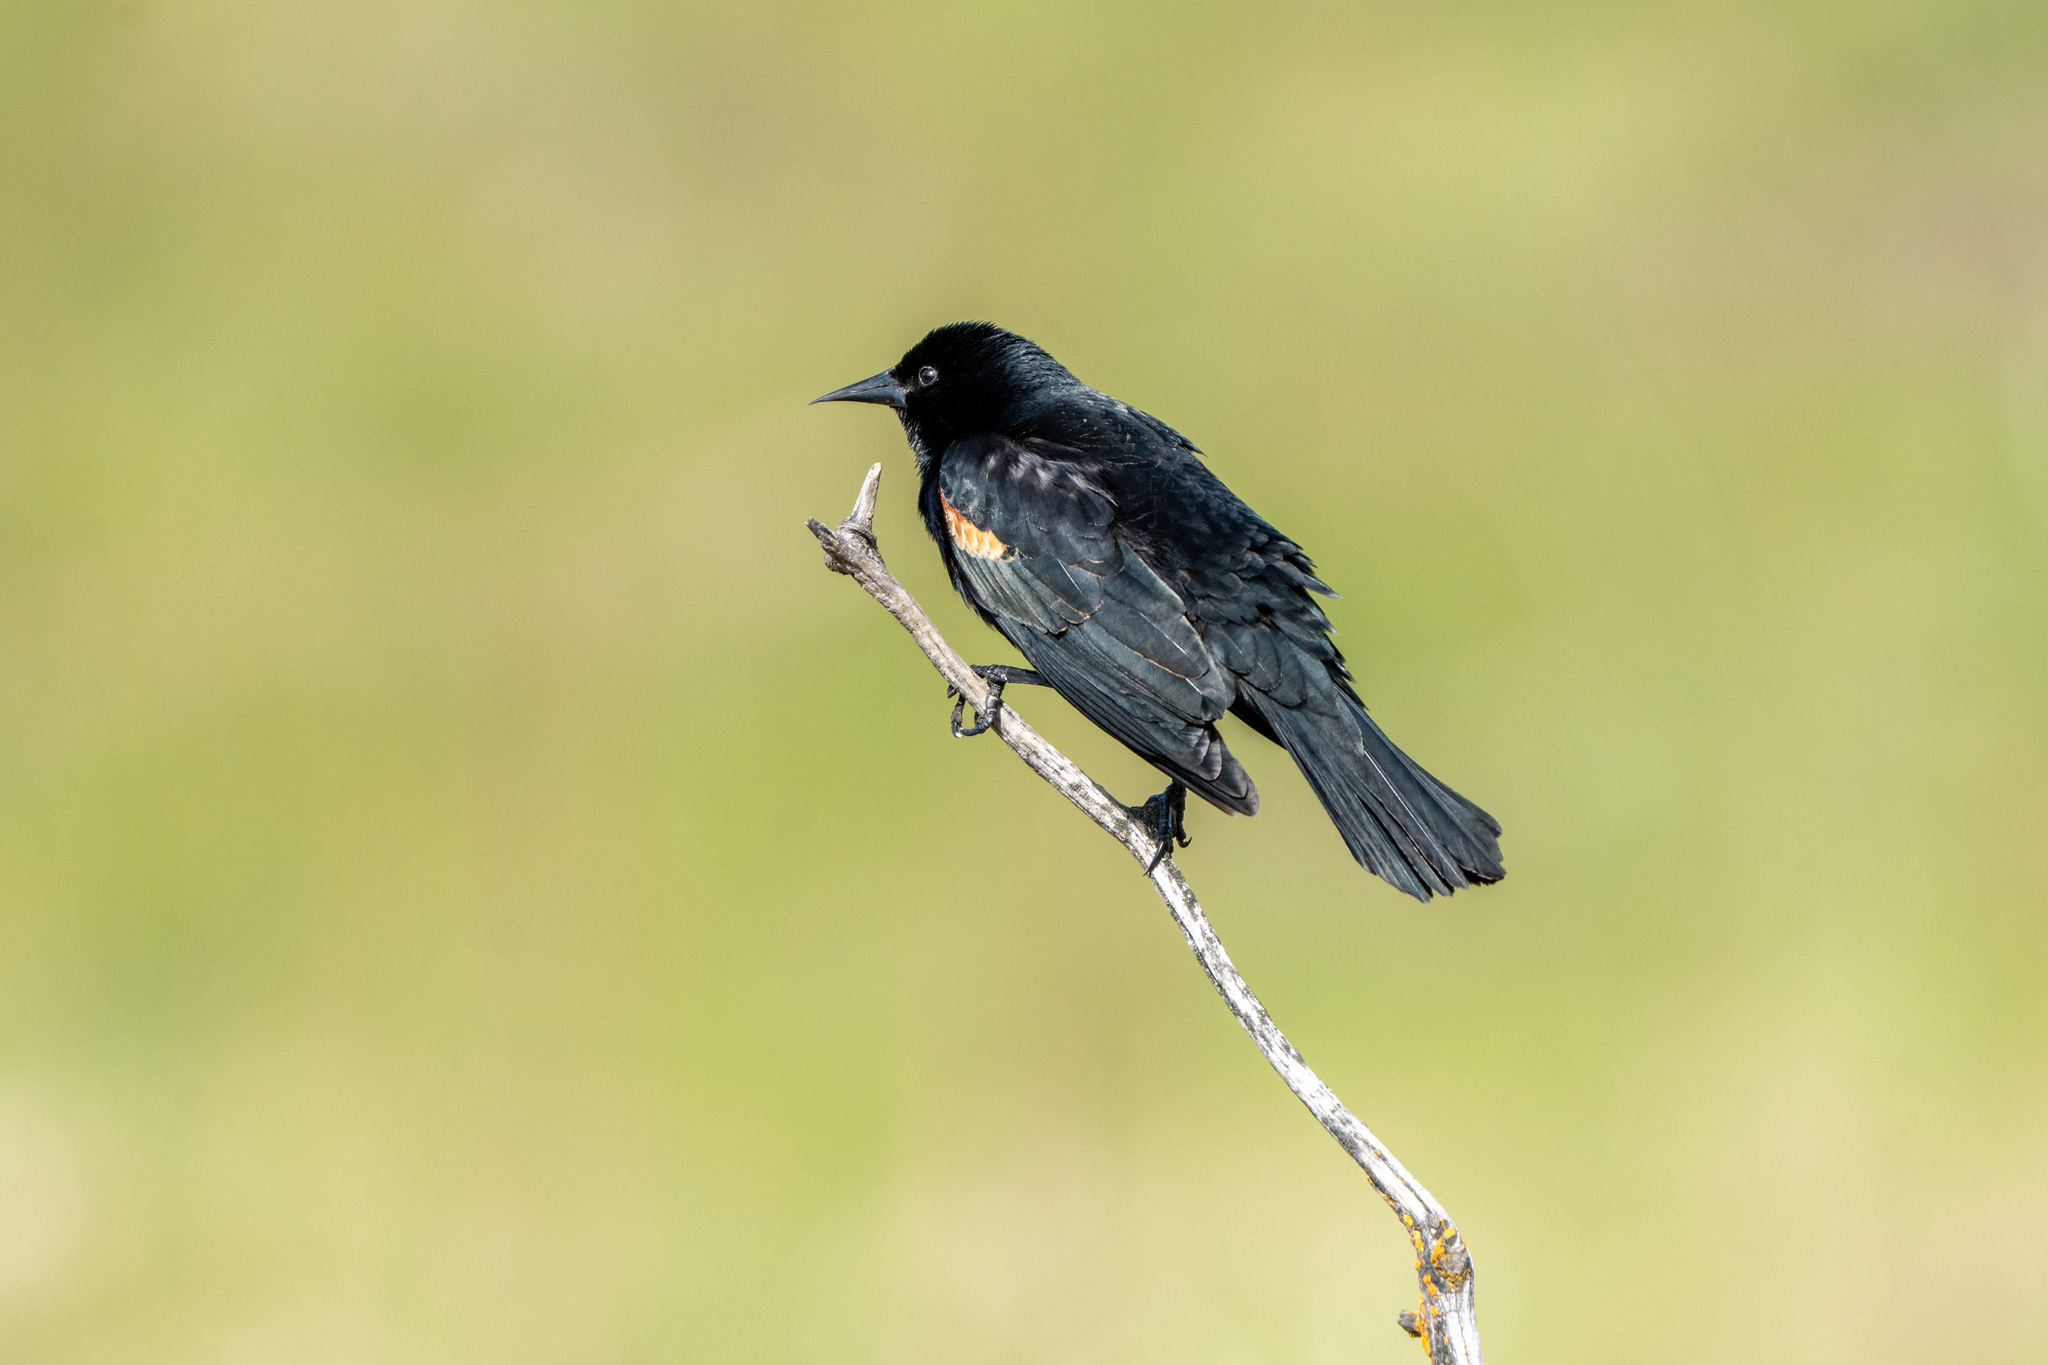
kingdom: Animalia
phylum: Chordata
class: Aves
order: Passeriformes
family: Icteridae
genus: Agelaius
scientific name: Agelaius phoeniceus
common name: Red-winged blackbird
